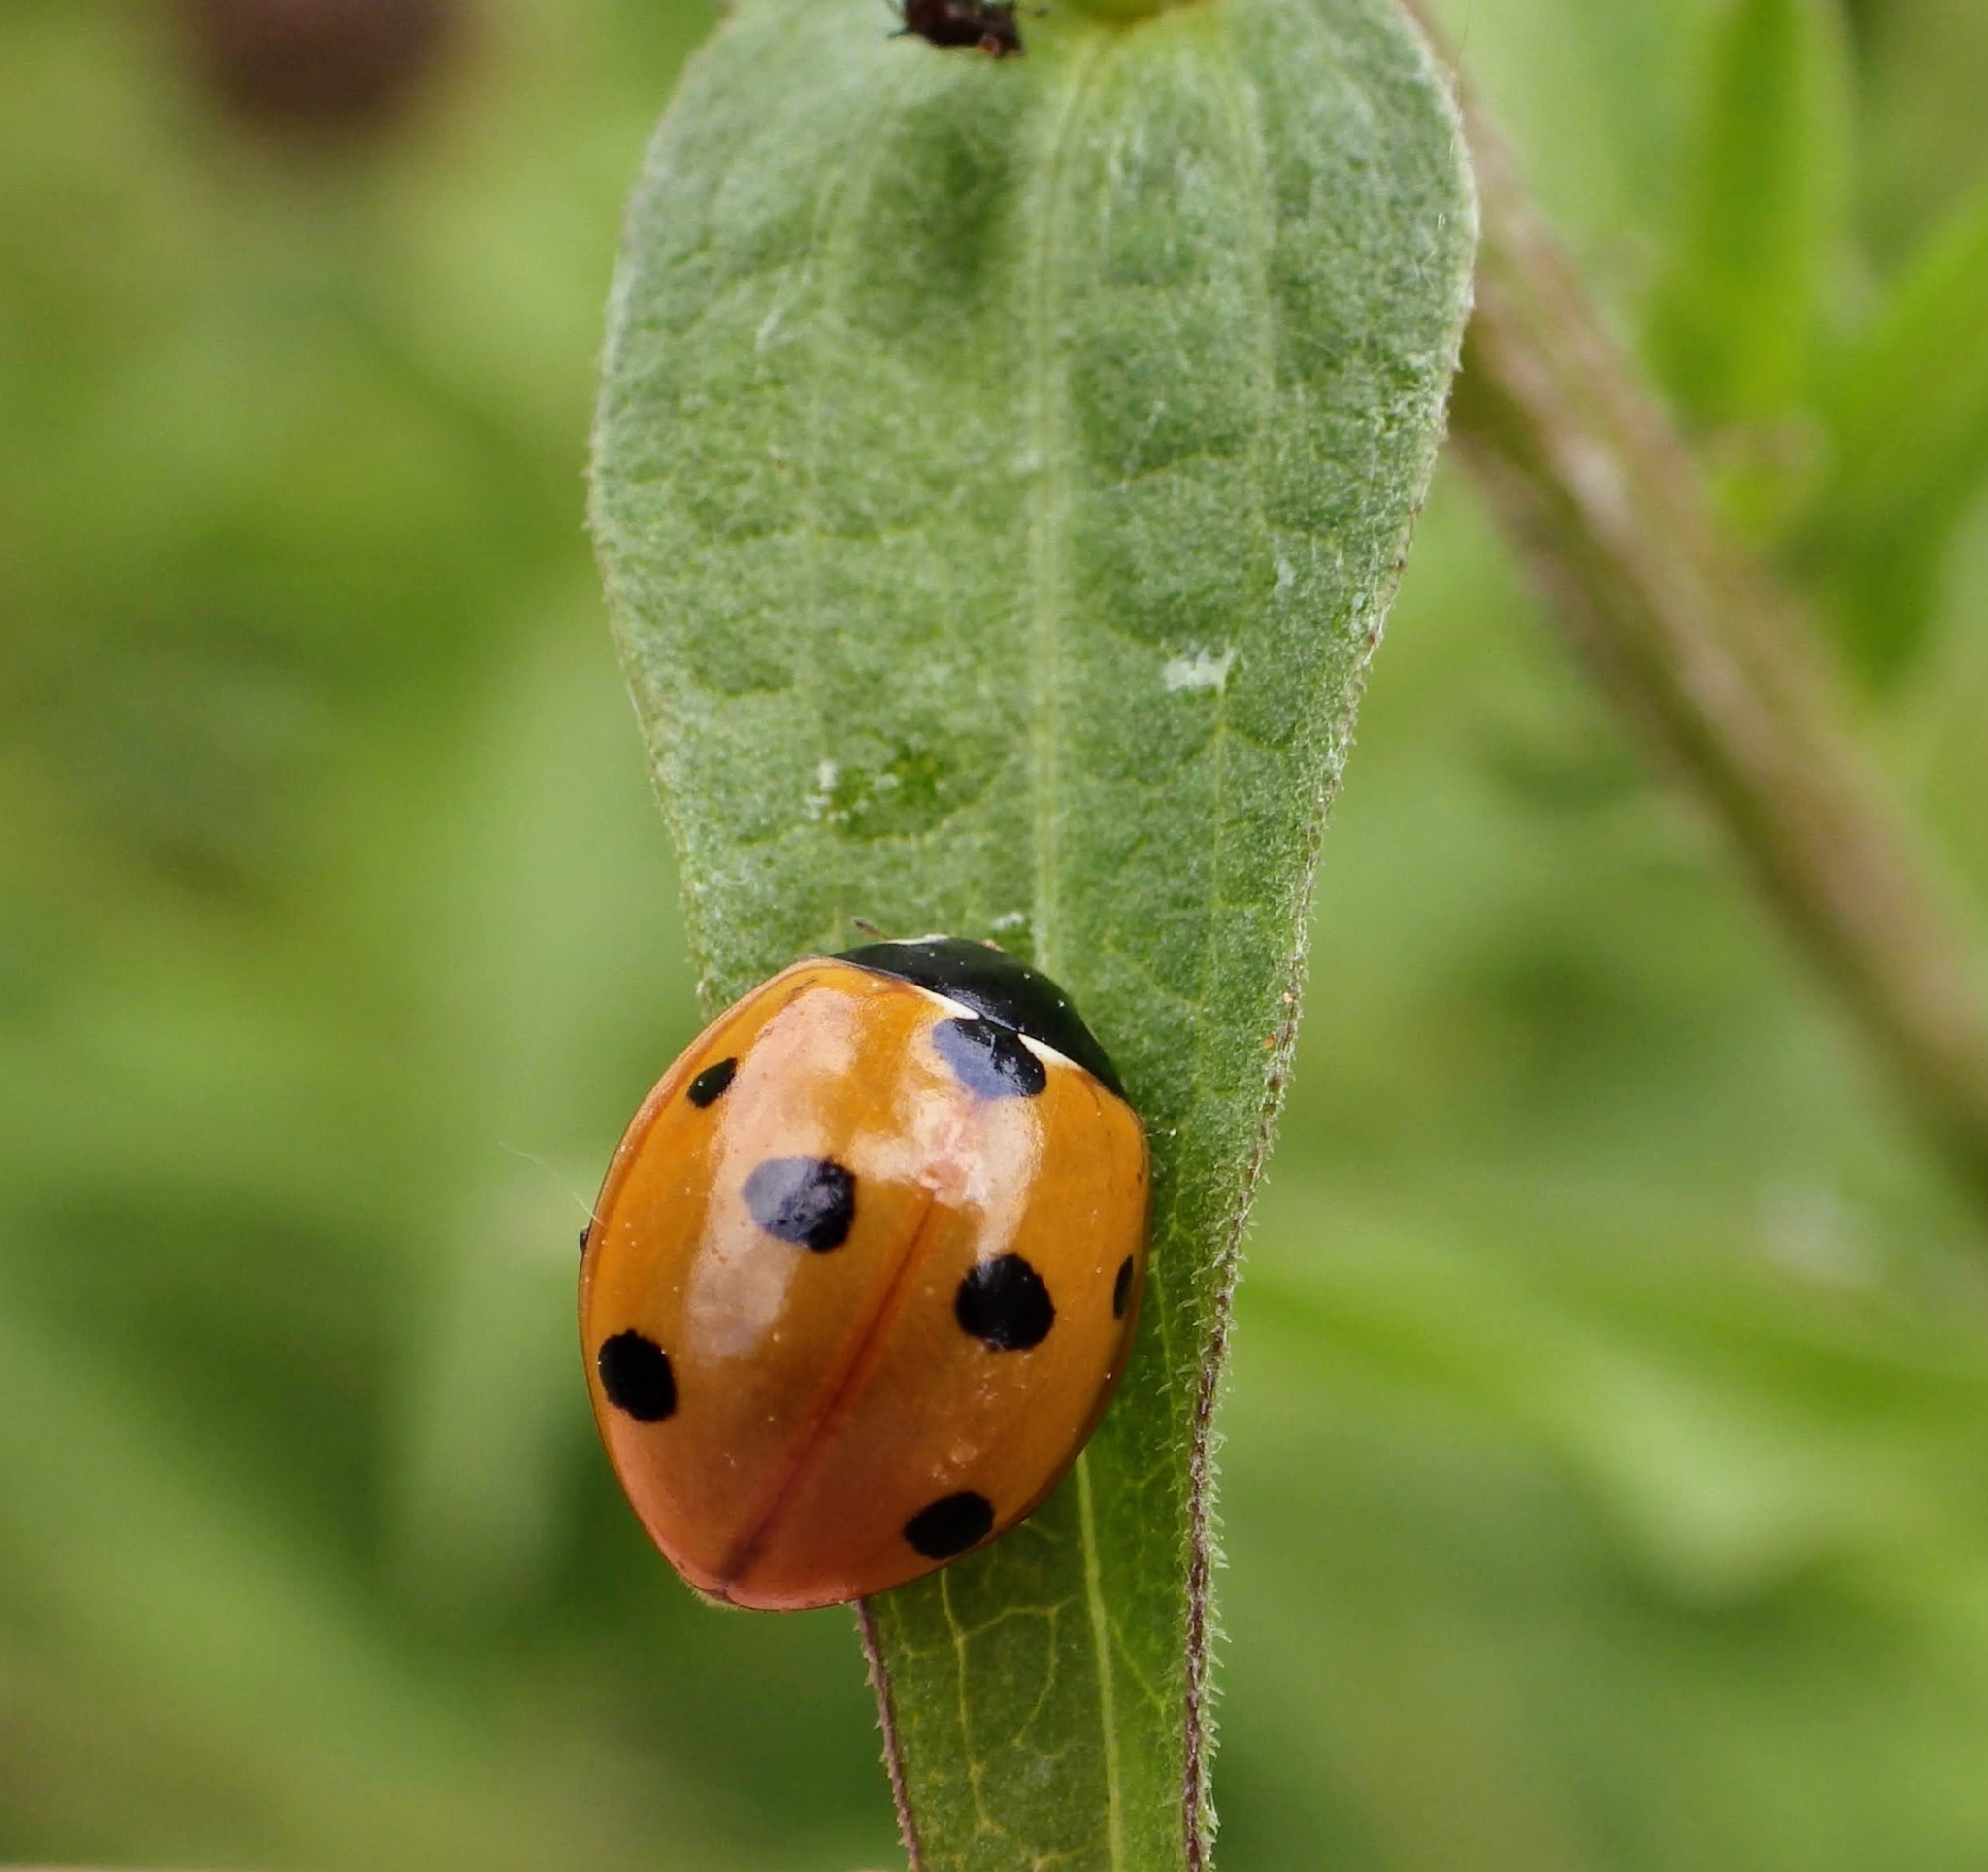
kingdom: Animalia
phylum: Arthropoda
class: Insecta
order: Coleoptera
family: Coccinellidae
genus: Coccinella
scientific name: Coccinella septempunctata
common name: Sevenspotted lady beetle
